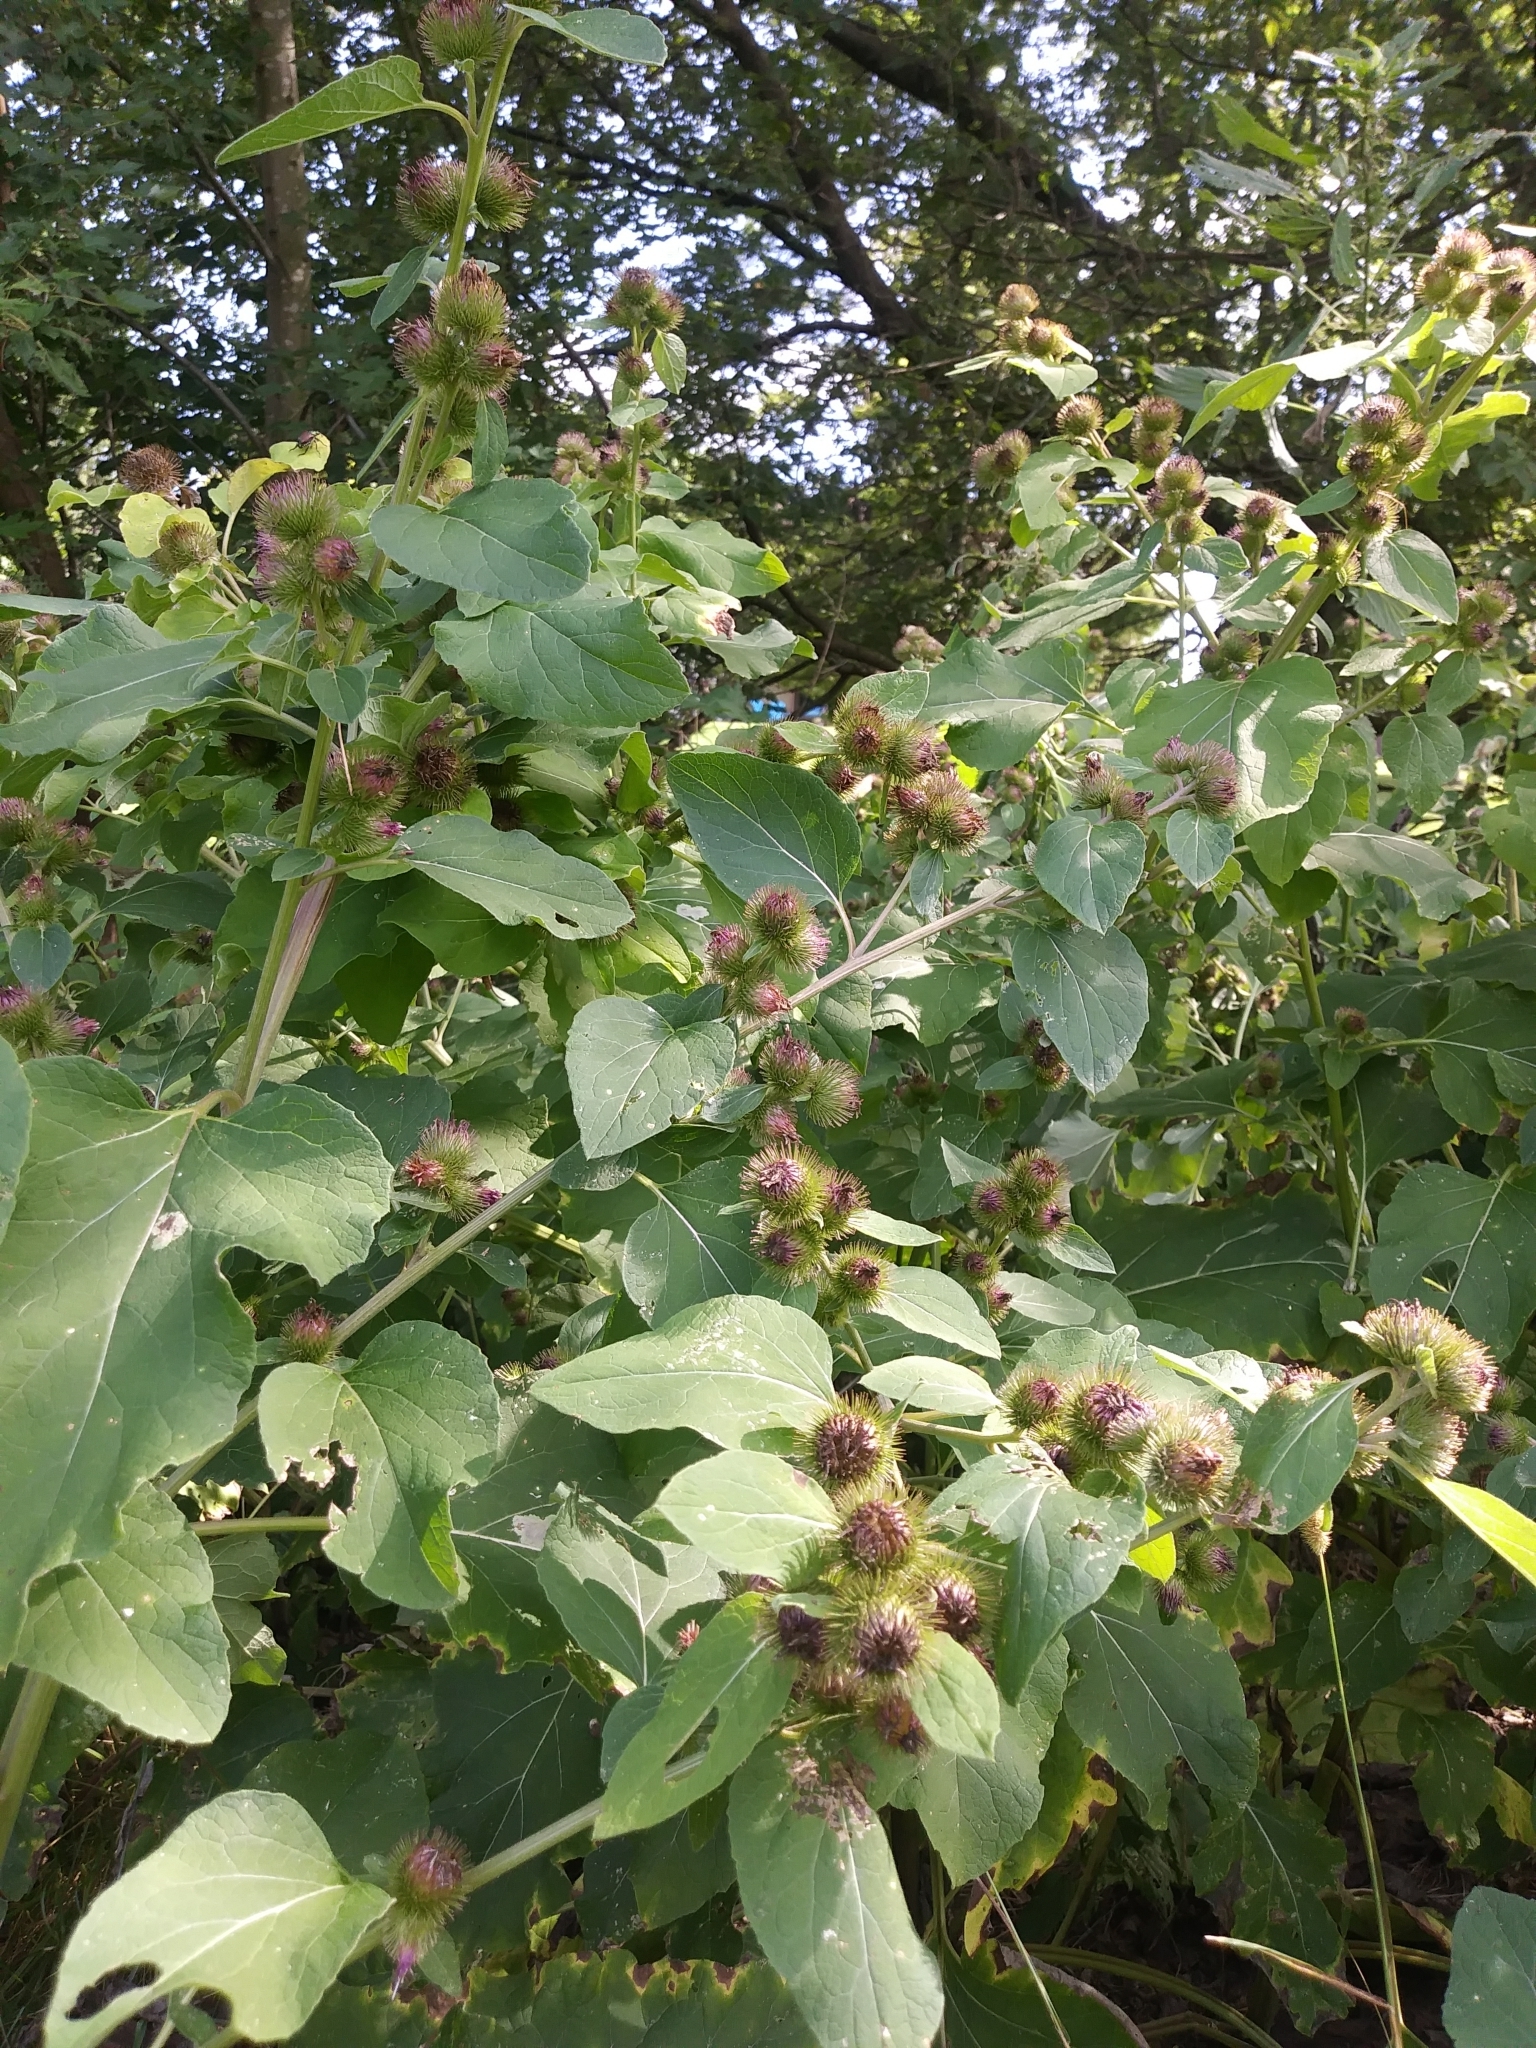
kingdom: Plantae
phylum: Tracheophyta
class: Magnoliopsida
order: Asterales
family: Asteraceae
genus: Arctium
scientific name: Arctium minus
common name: Lesser burdock
